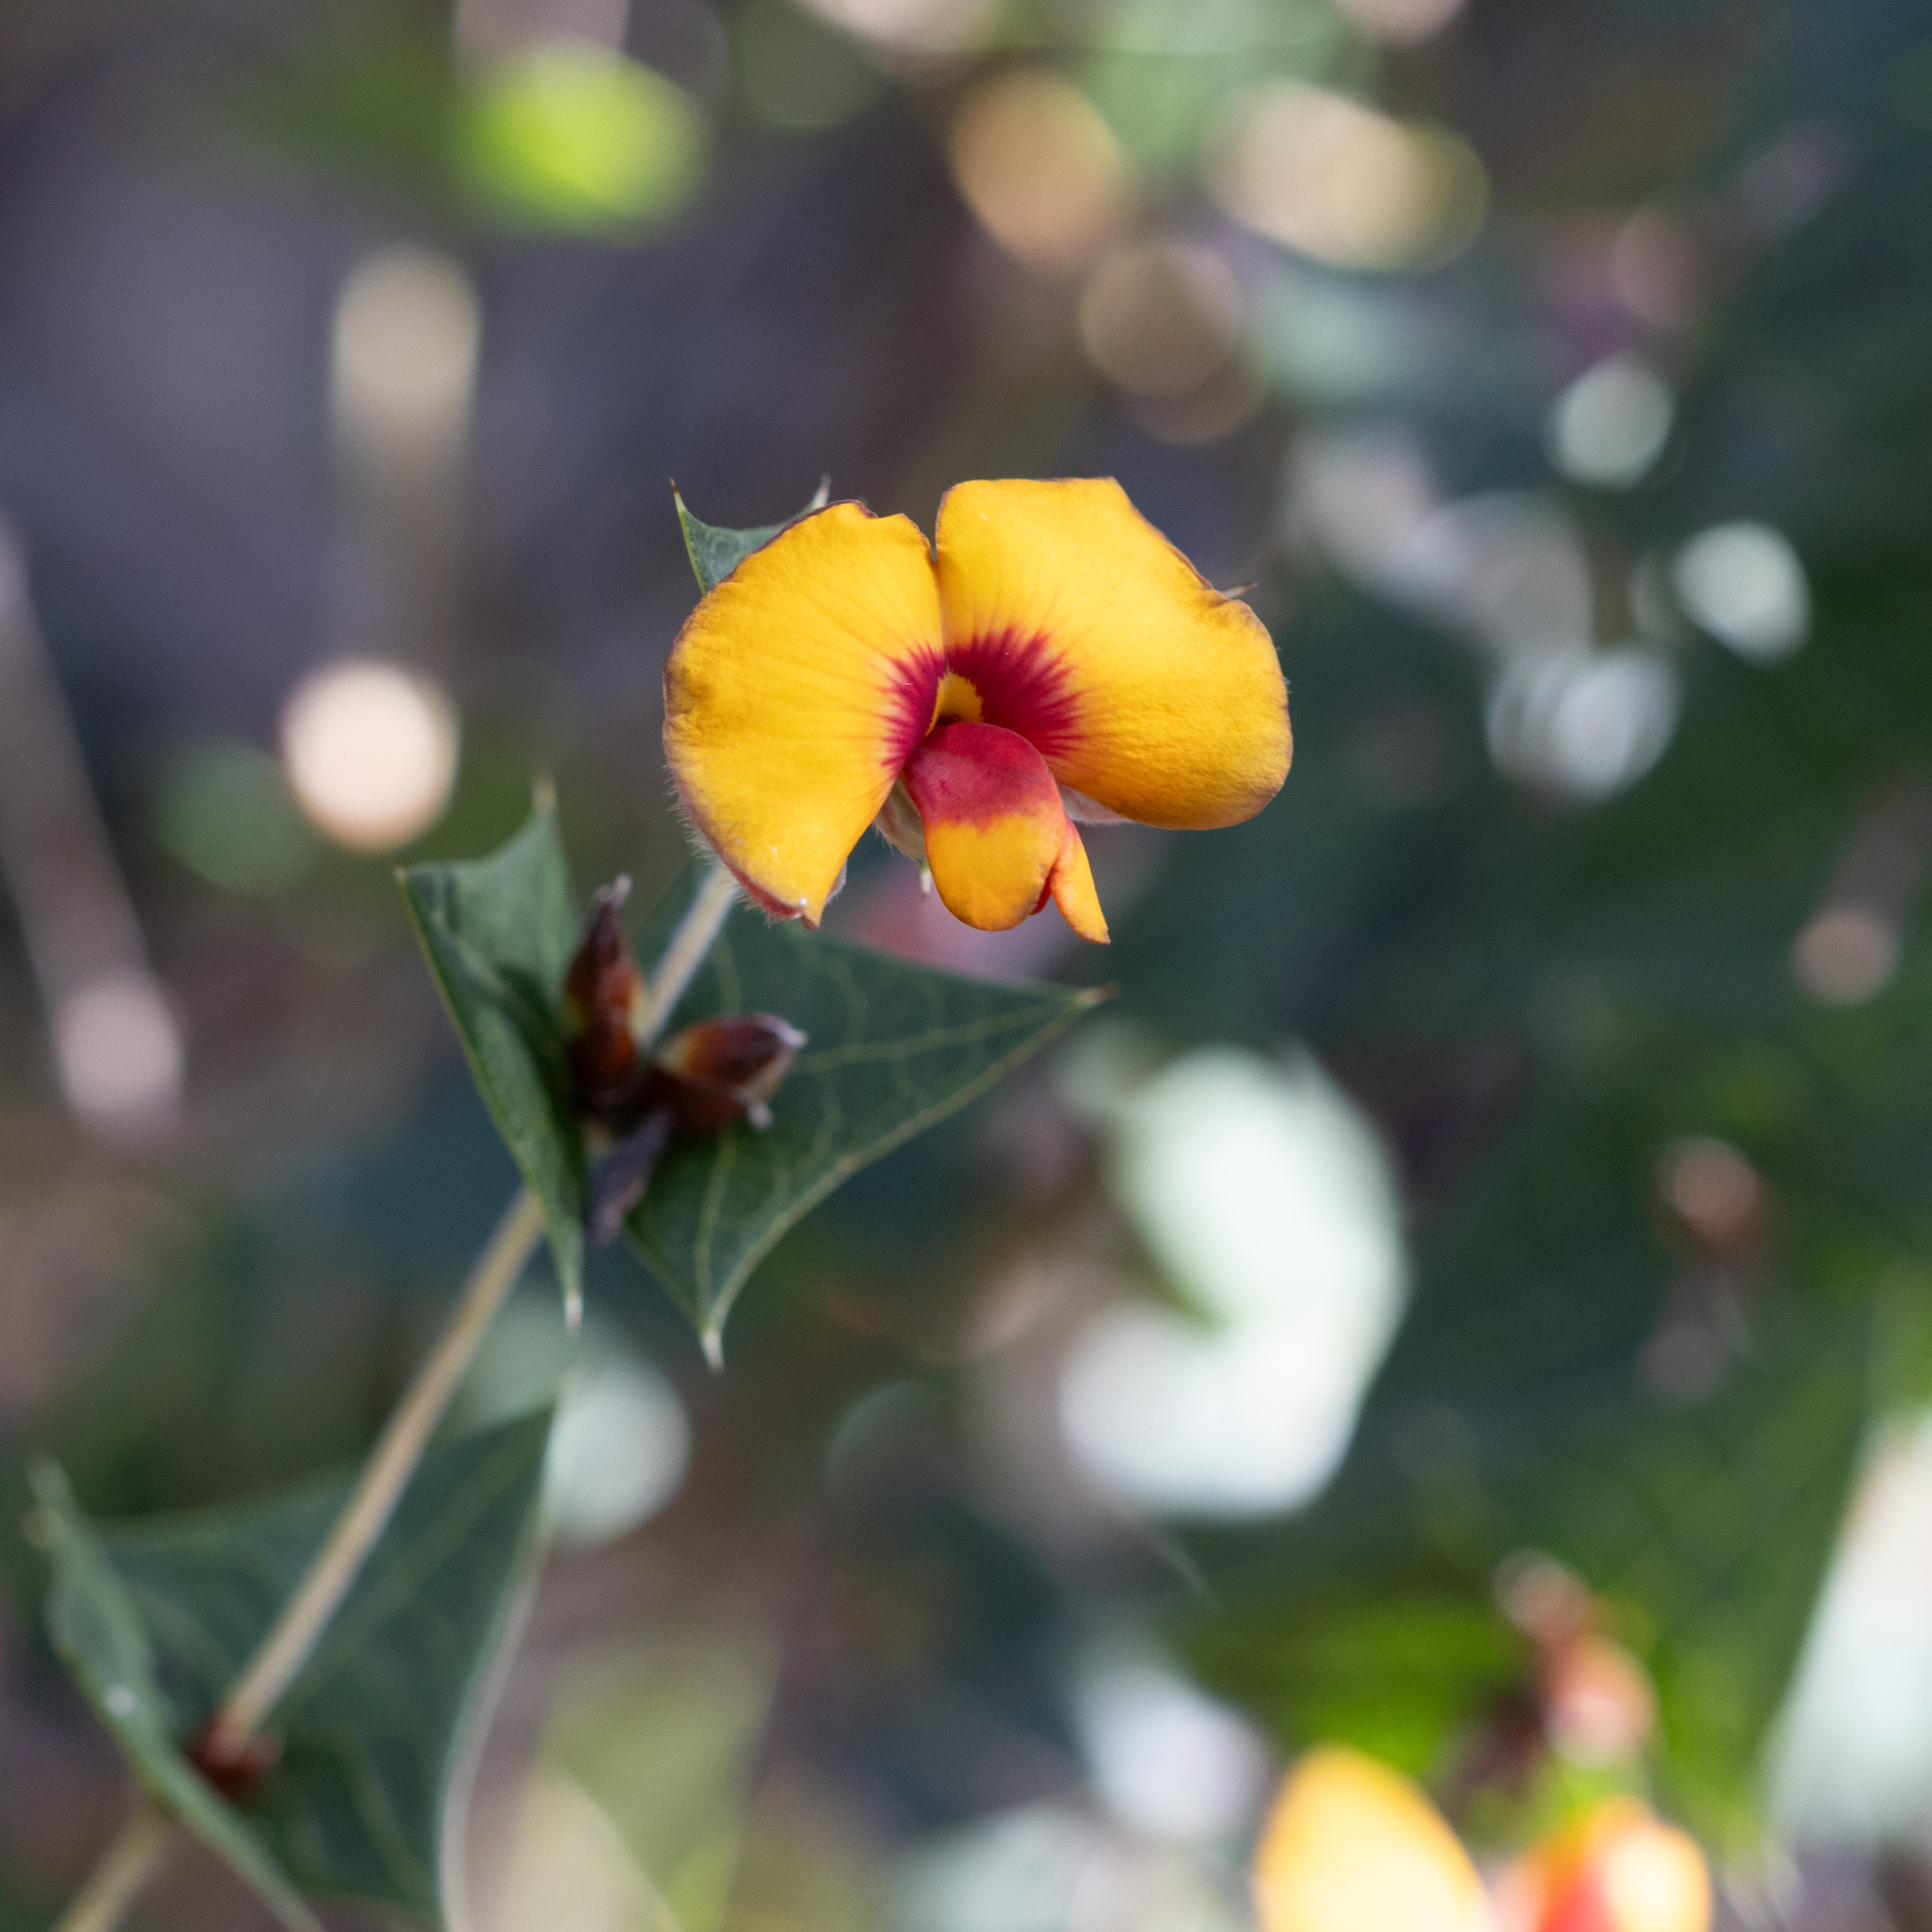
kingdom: Plantae
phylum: Tracheophyta
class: Magnoliopsida
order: Fabales
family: Fabaceae
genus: Platylobium
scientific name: Platylobium obtusangulum
